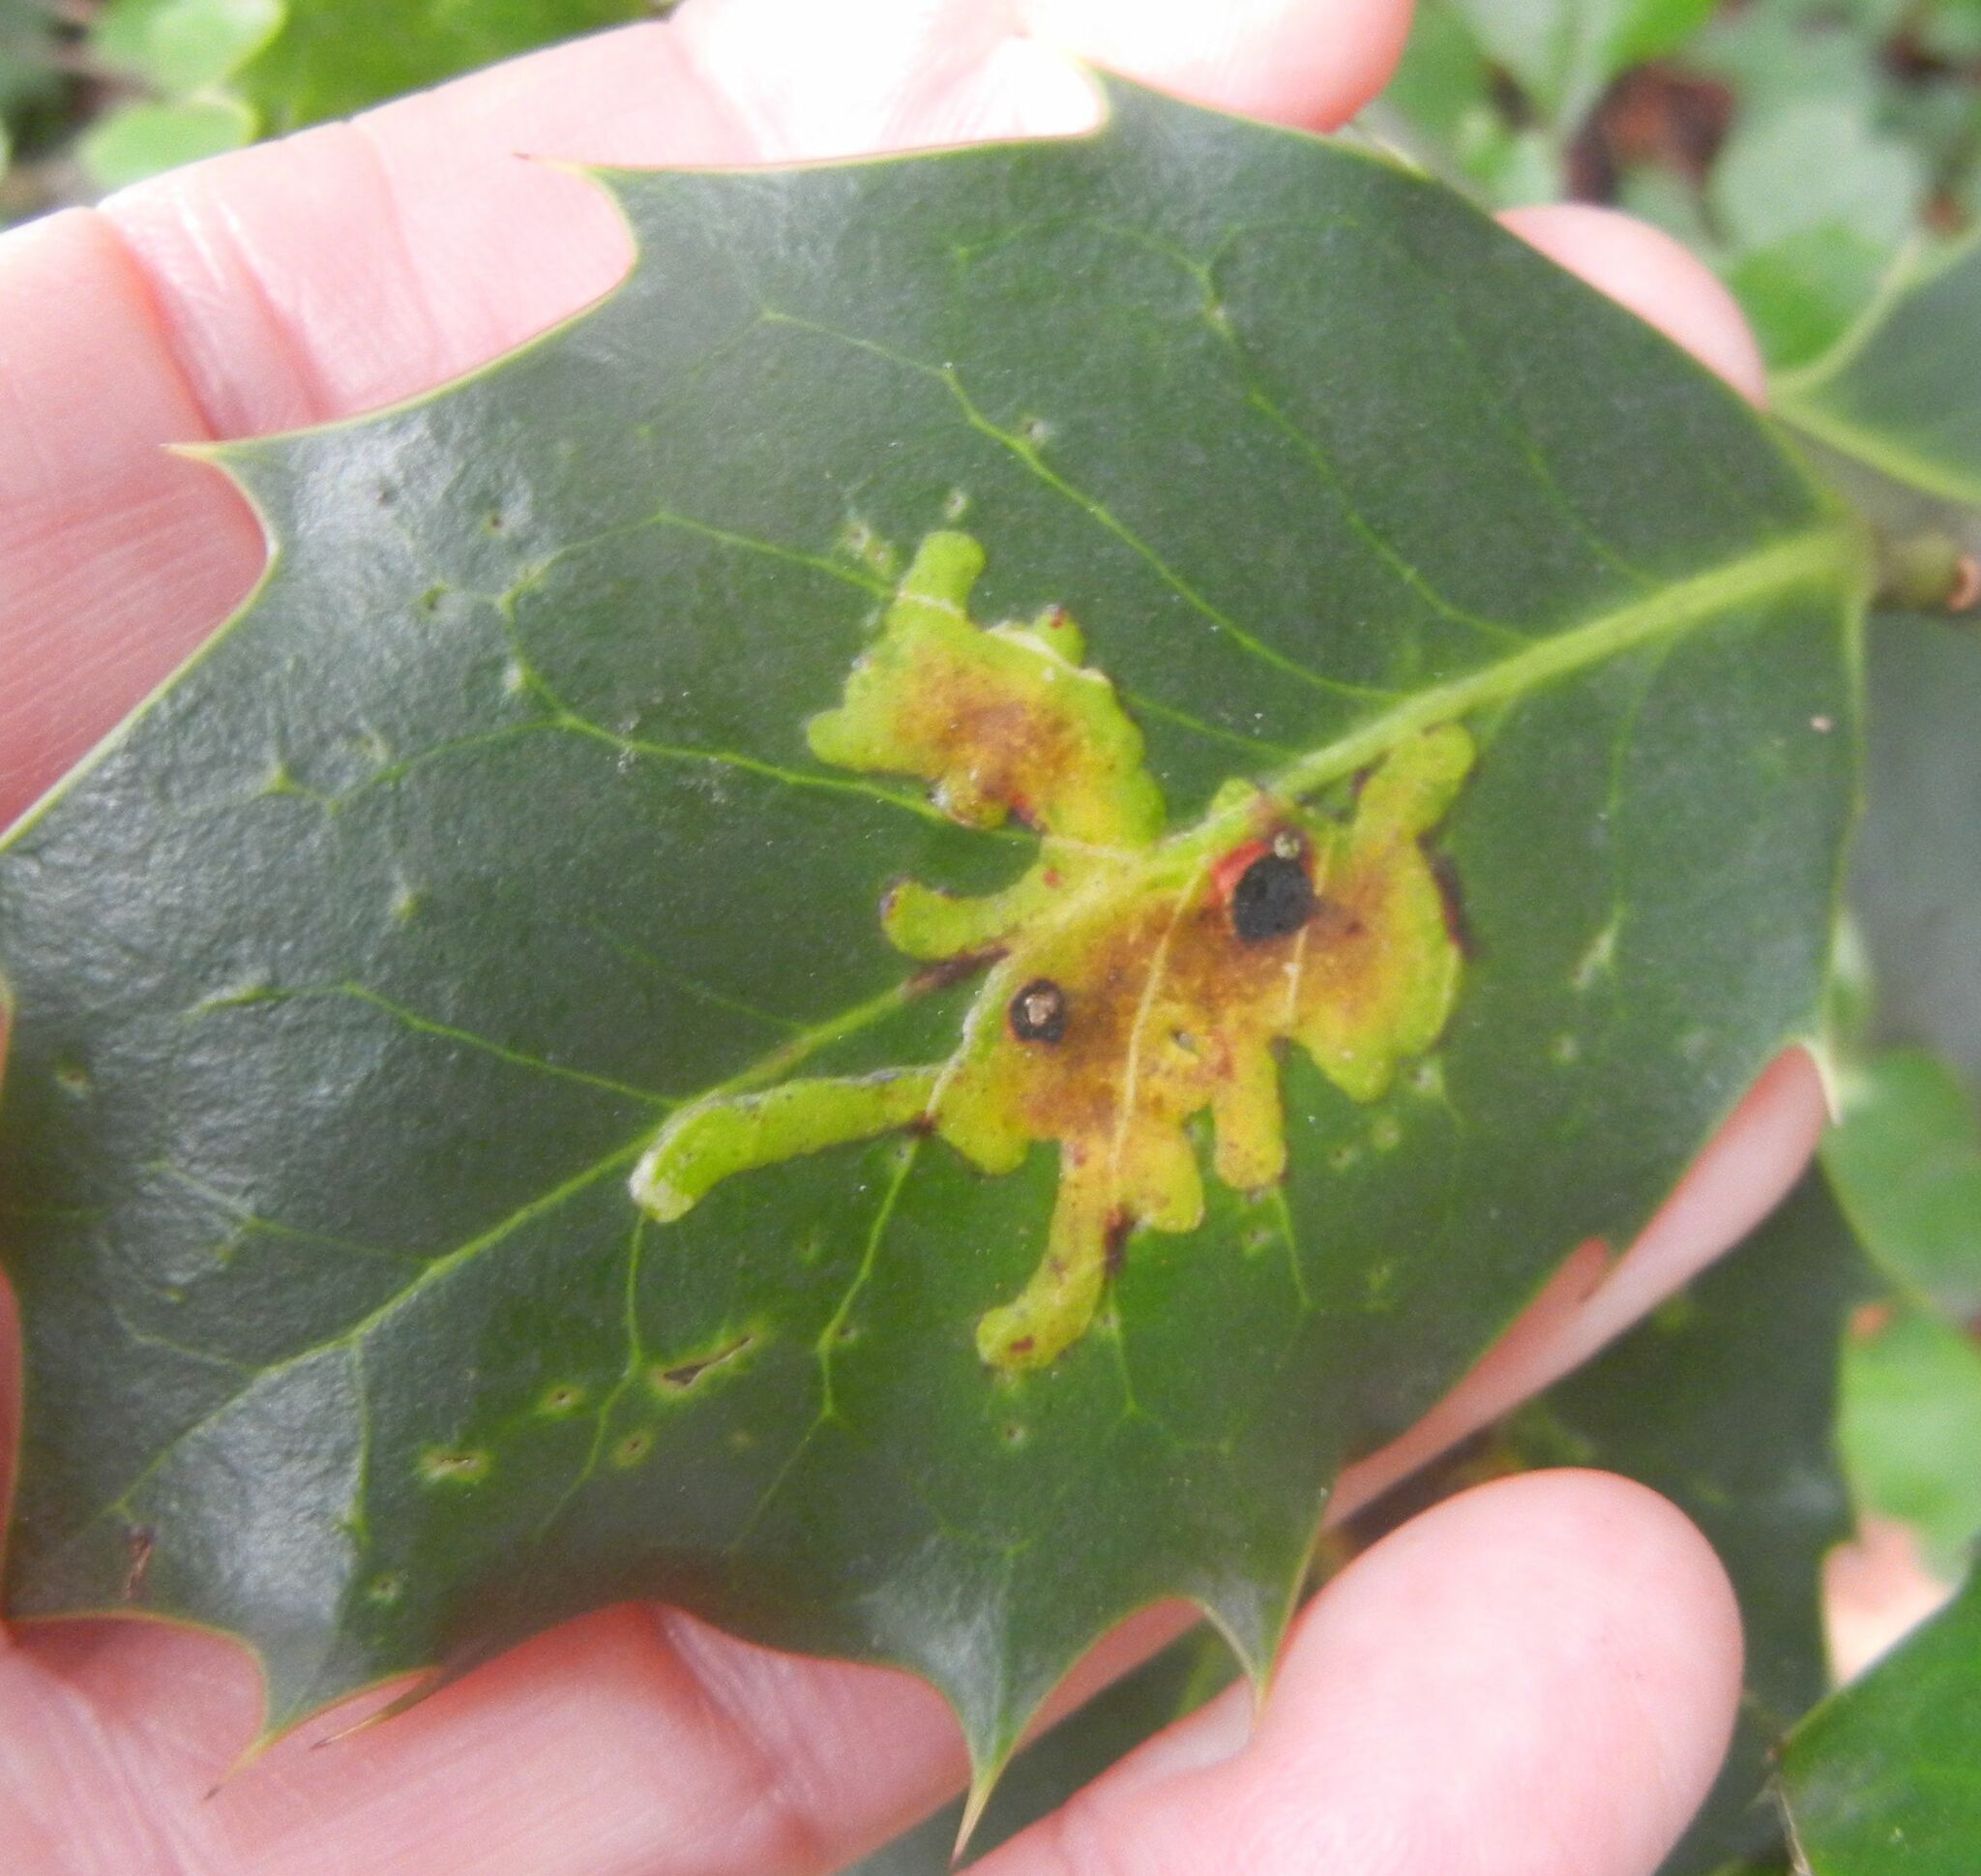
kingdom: Animalia
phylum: Arthropoda
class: Insecta
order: Diptera
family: Agromyzidae
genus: Phytomyza
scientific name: Phytomyza ilicis
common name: Holly leafminer
